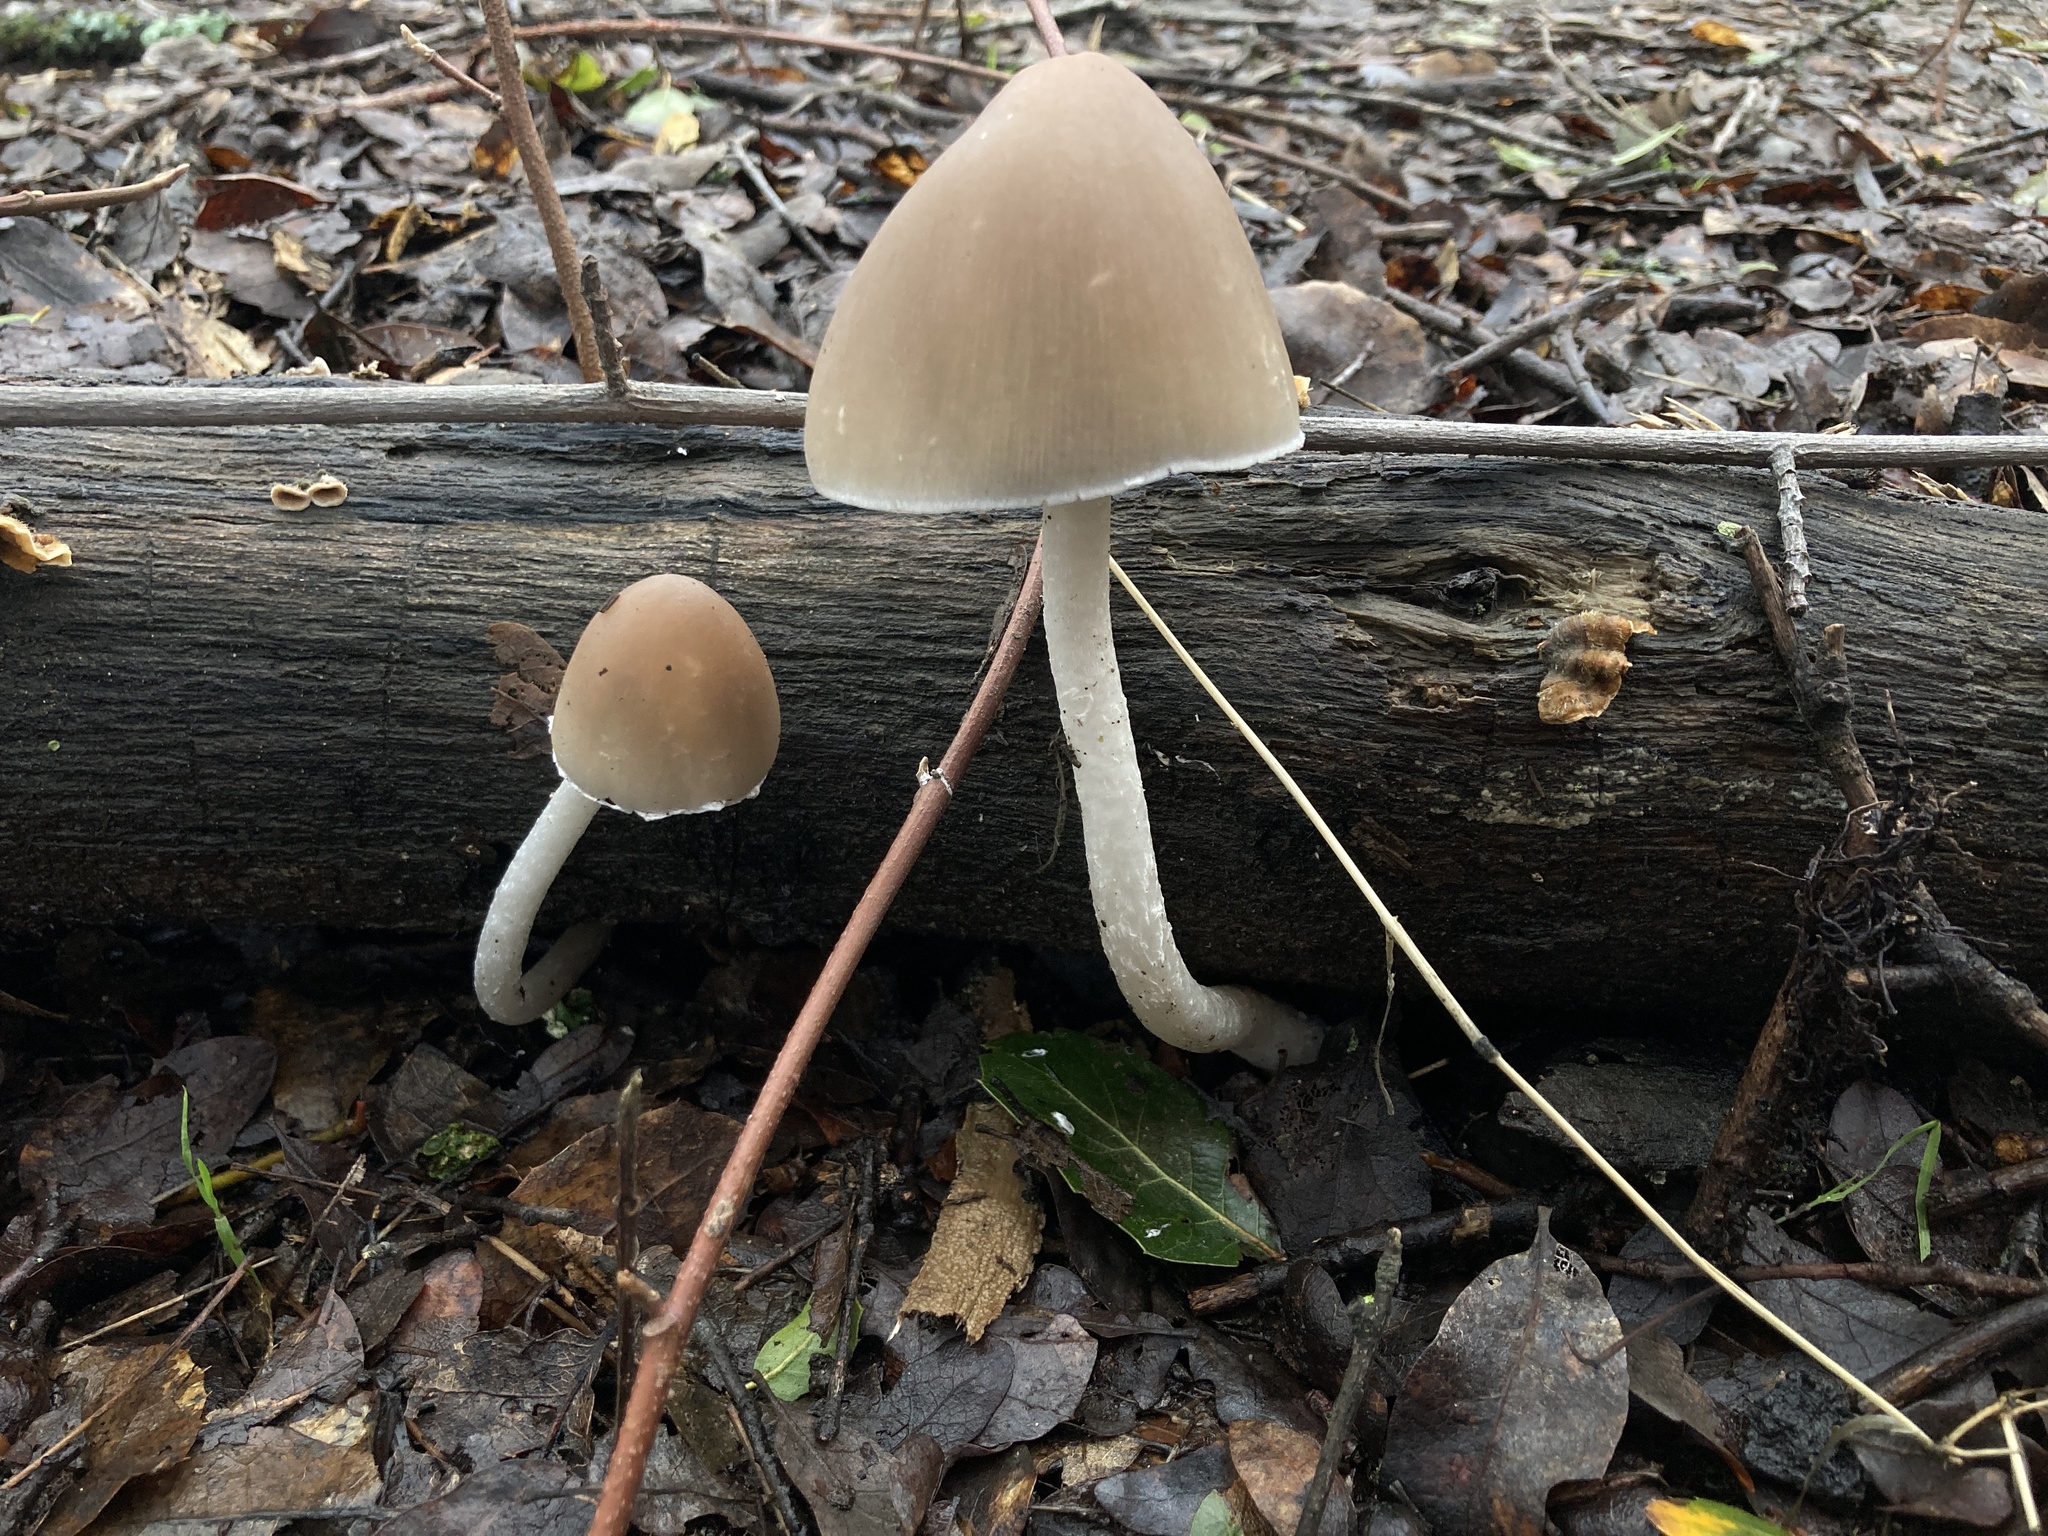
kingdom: Fungi
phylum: Basidiomycota
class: Agaricomycetes
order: Agaricales
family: Psathyrellaceae
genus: Psathyrella
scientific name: Psathyrella longipes
